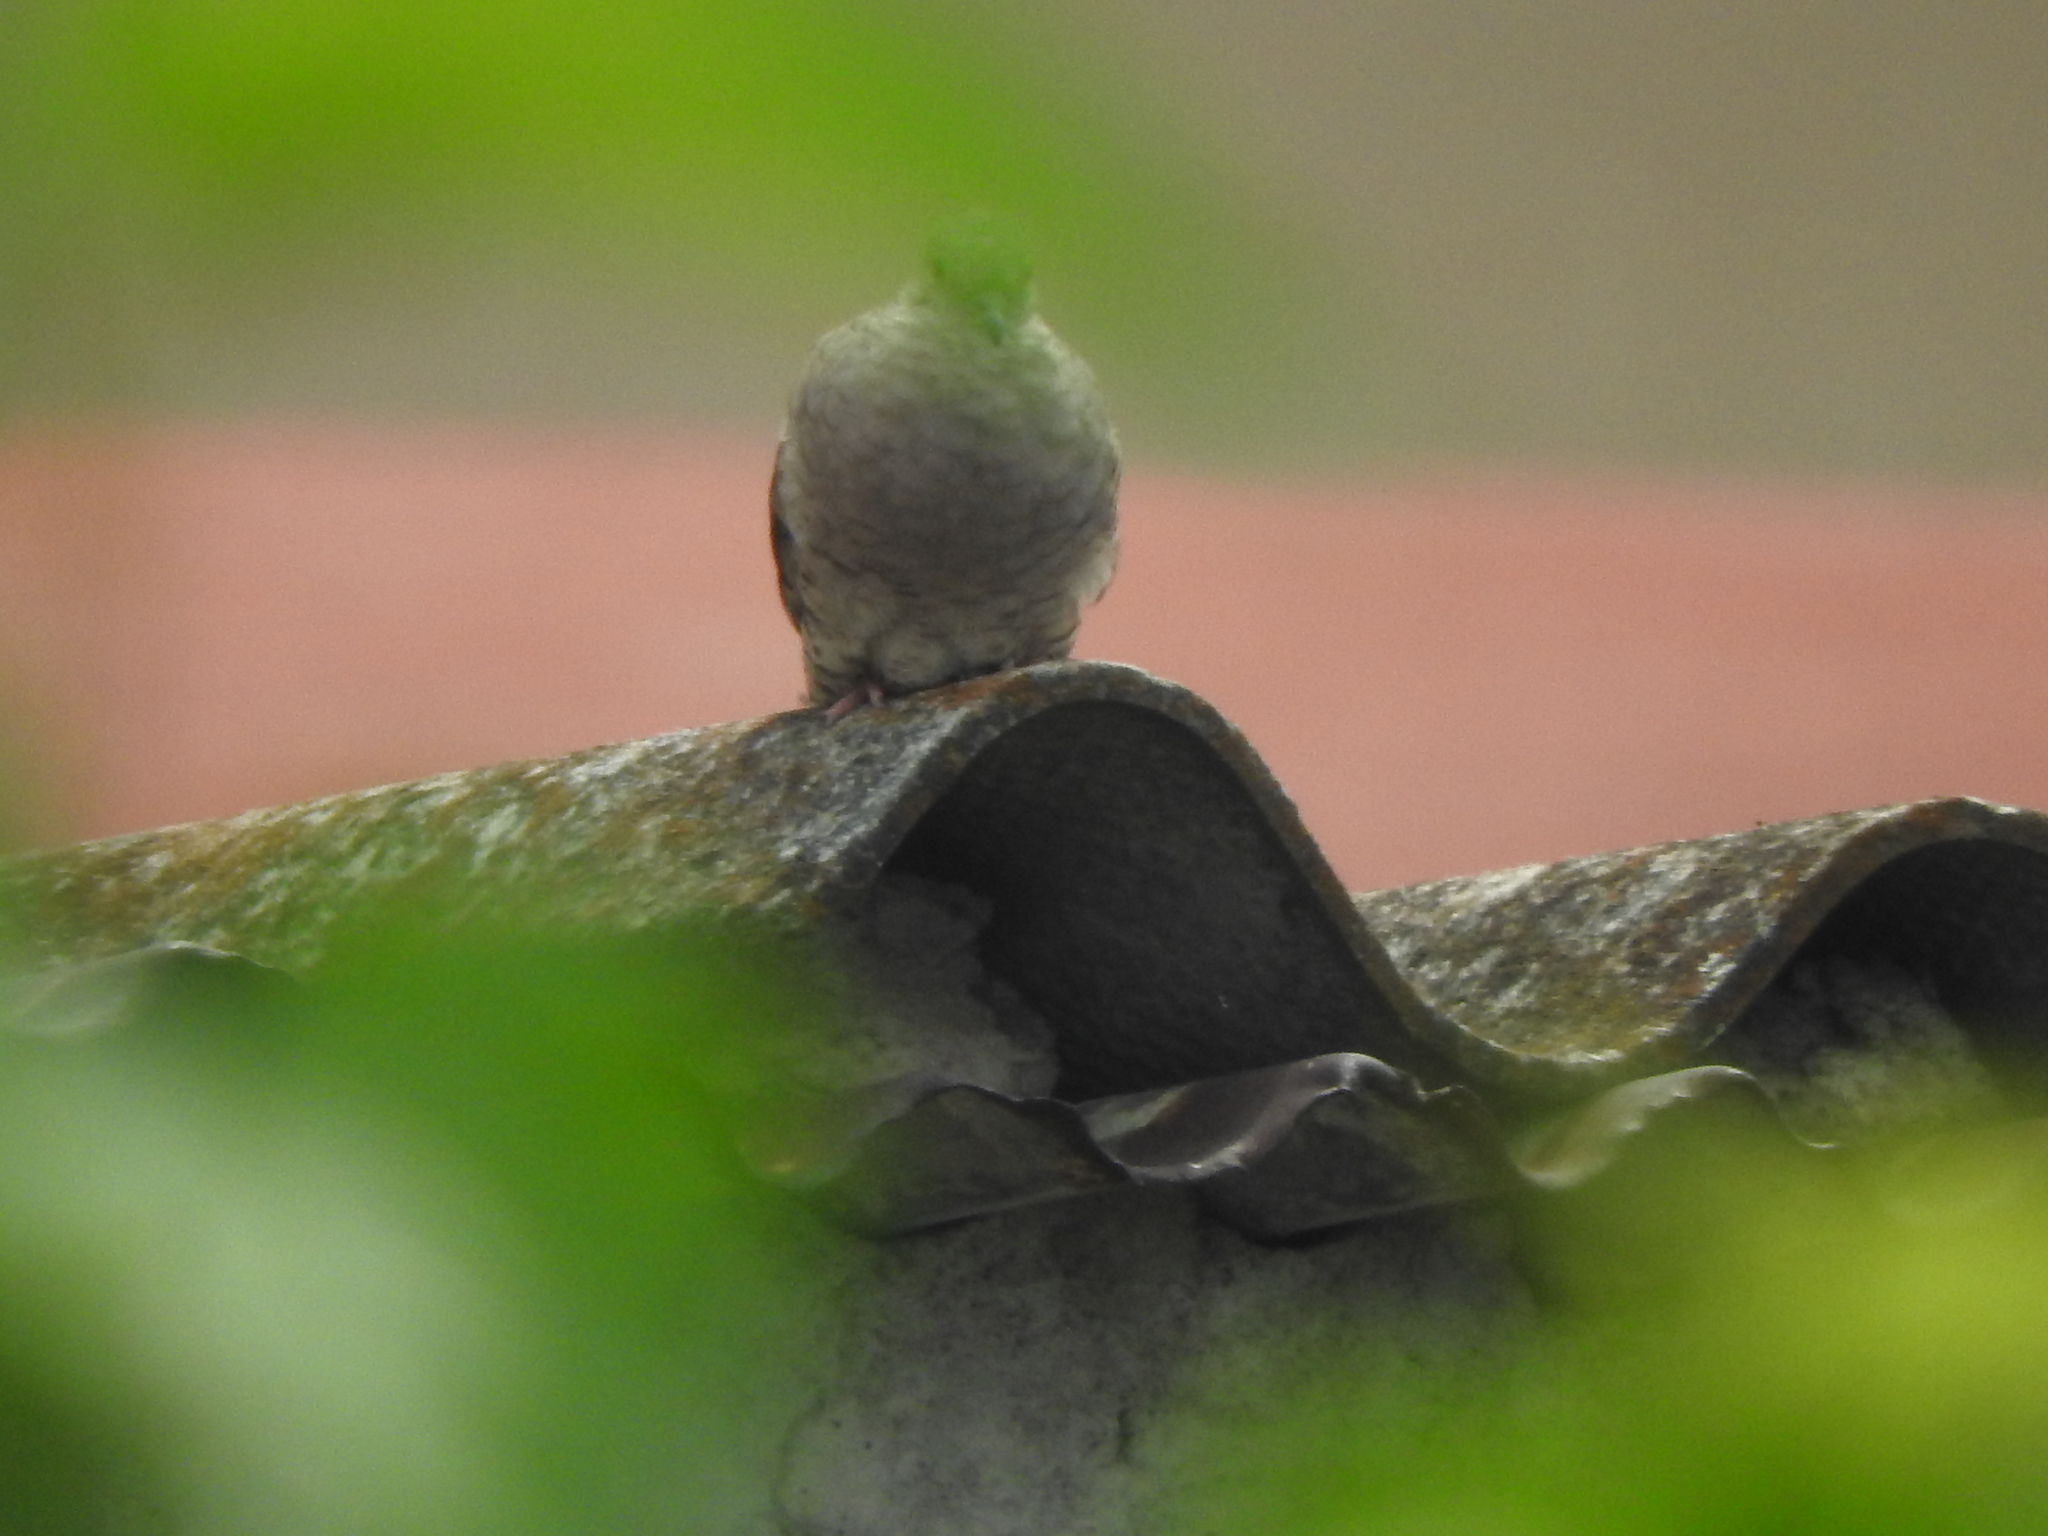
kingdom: Animalia
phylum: Chordata
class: Aves
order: Columbiformes
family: Columbidae
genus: Columbina
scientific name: Columbina inca
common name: Inca dove
